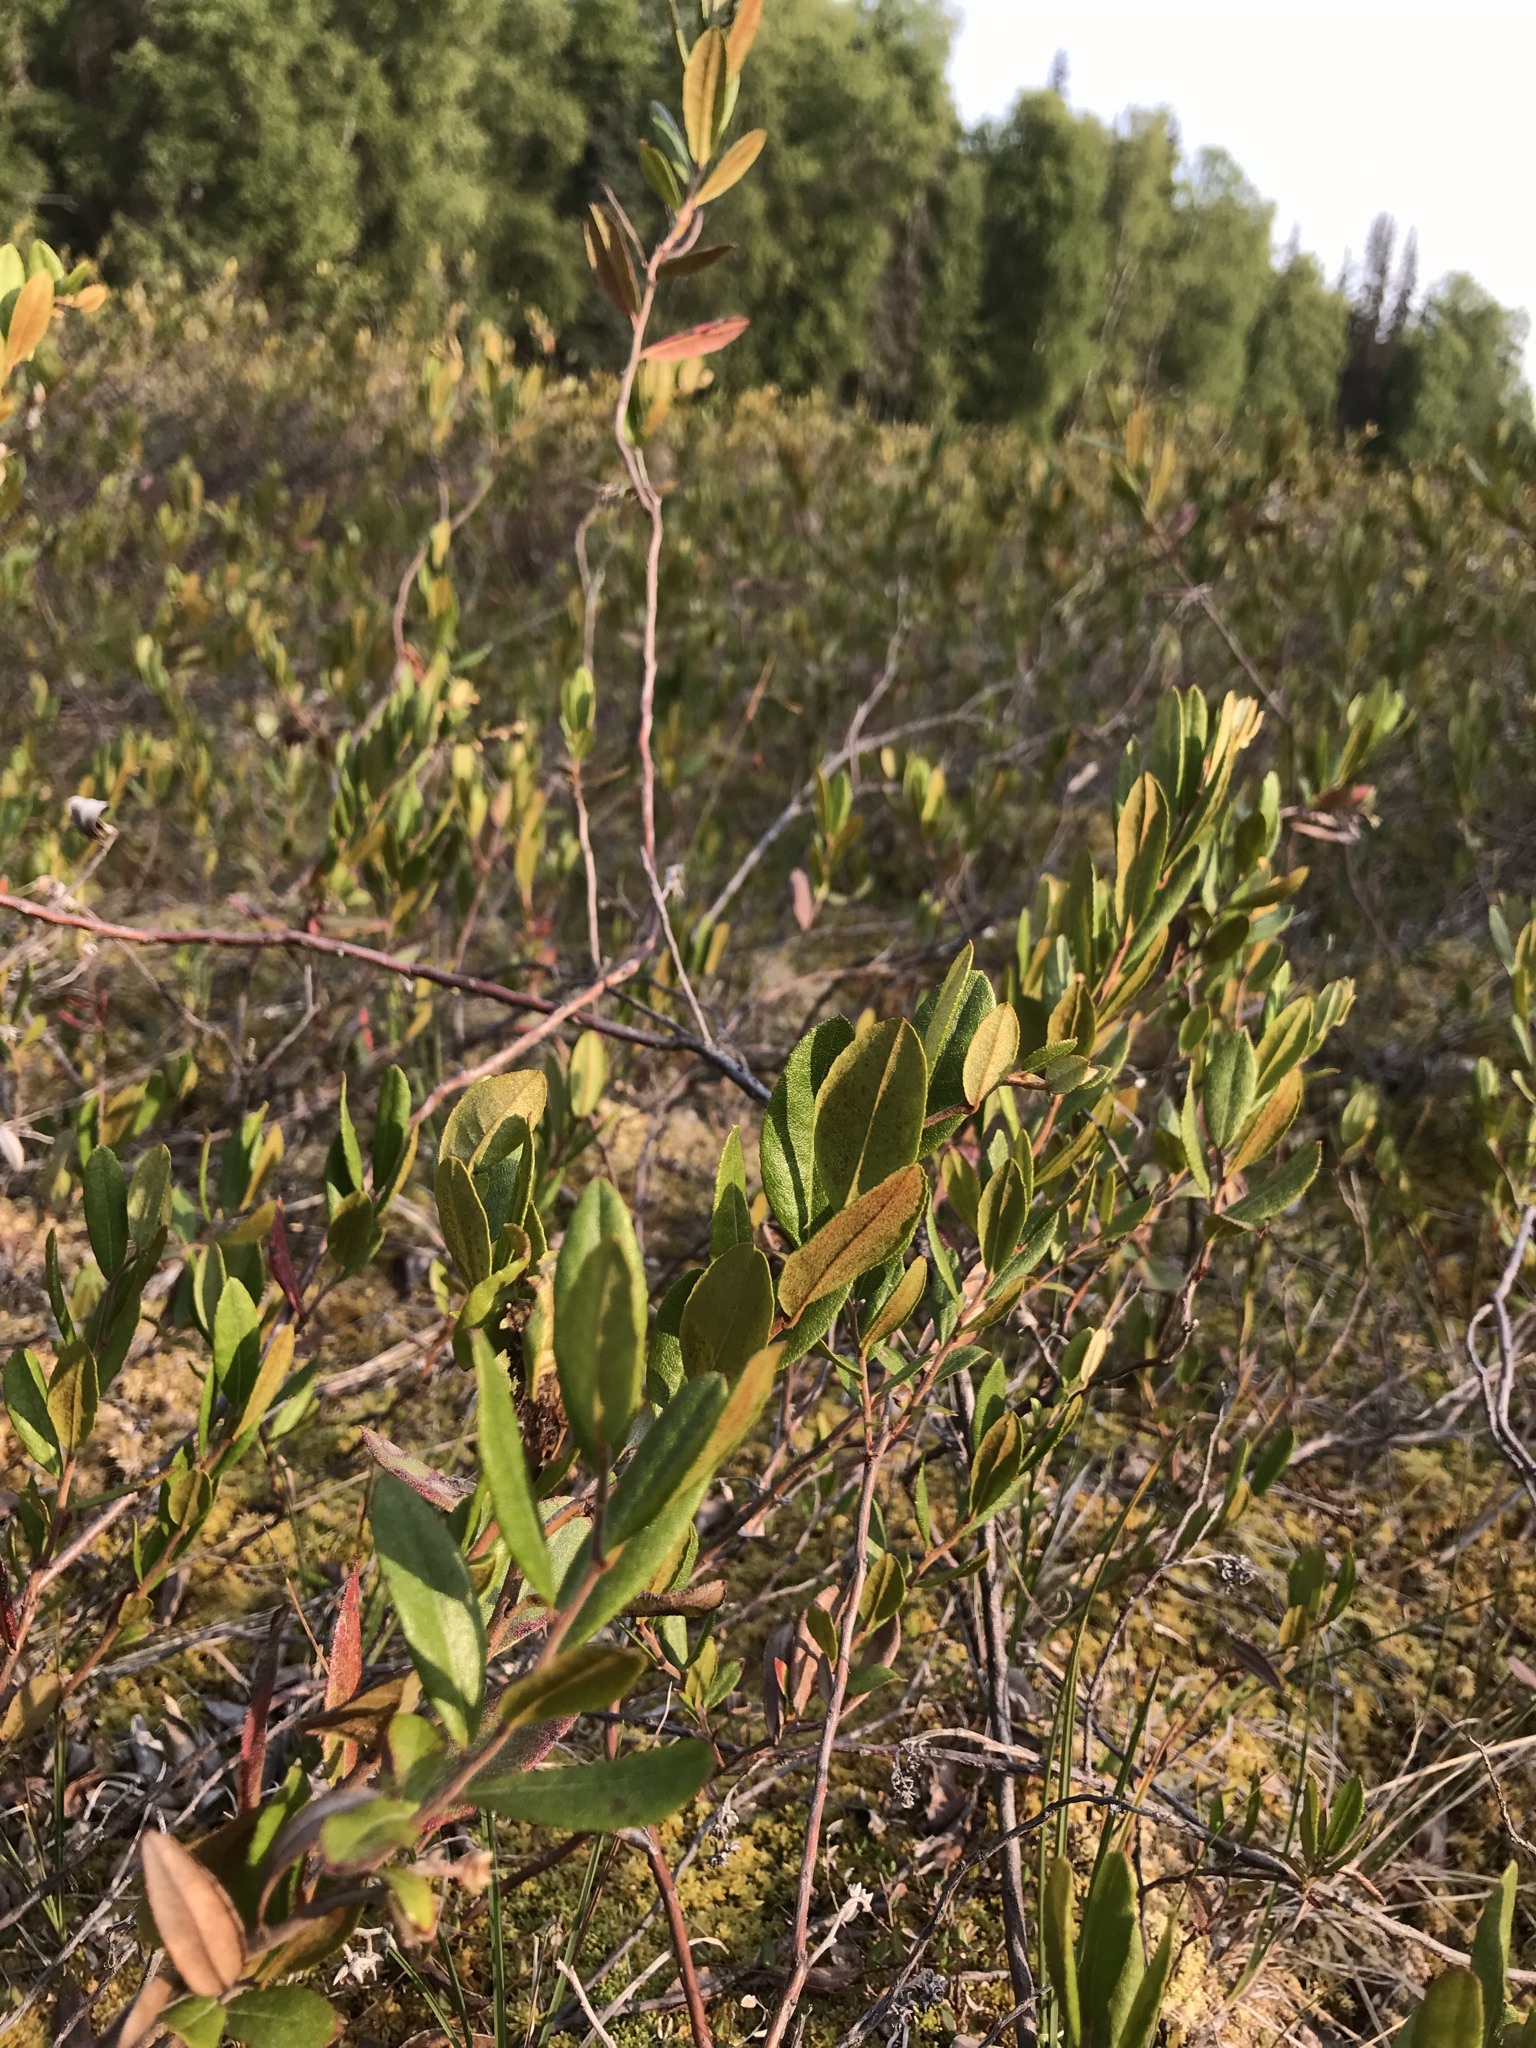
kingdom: Plantae
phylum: Tracheophyta
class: Magnoliopsida
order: Ericales
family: Ericaceae
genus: Chamaedaphne
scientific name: Chamaedaphne calyculata
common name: Leatherleaf
